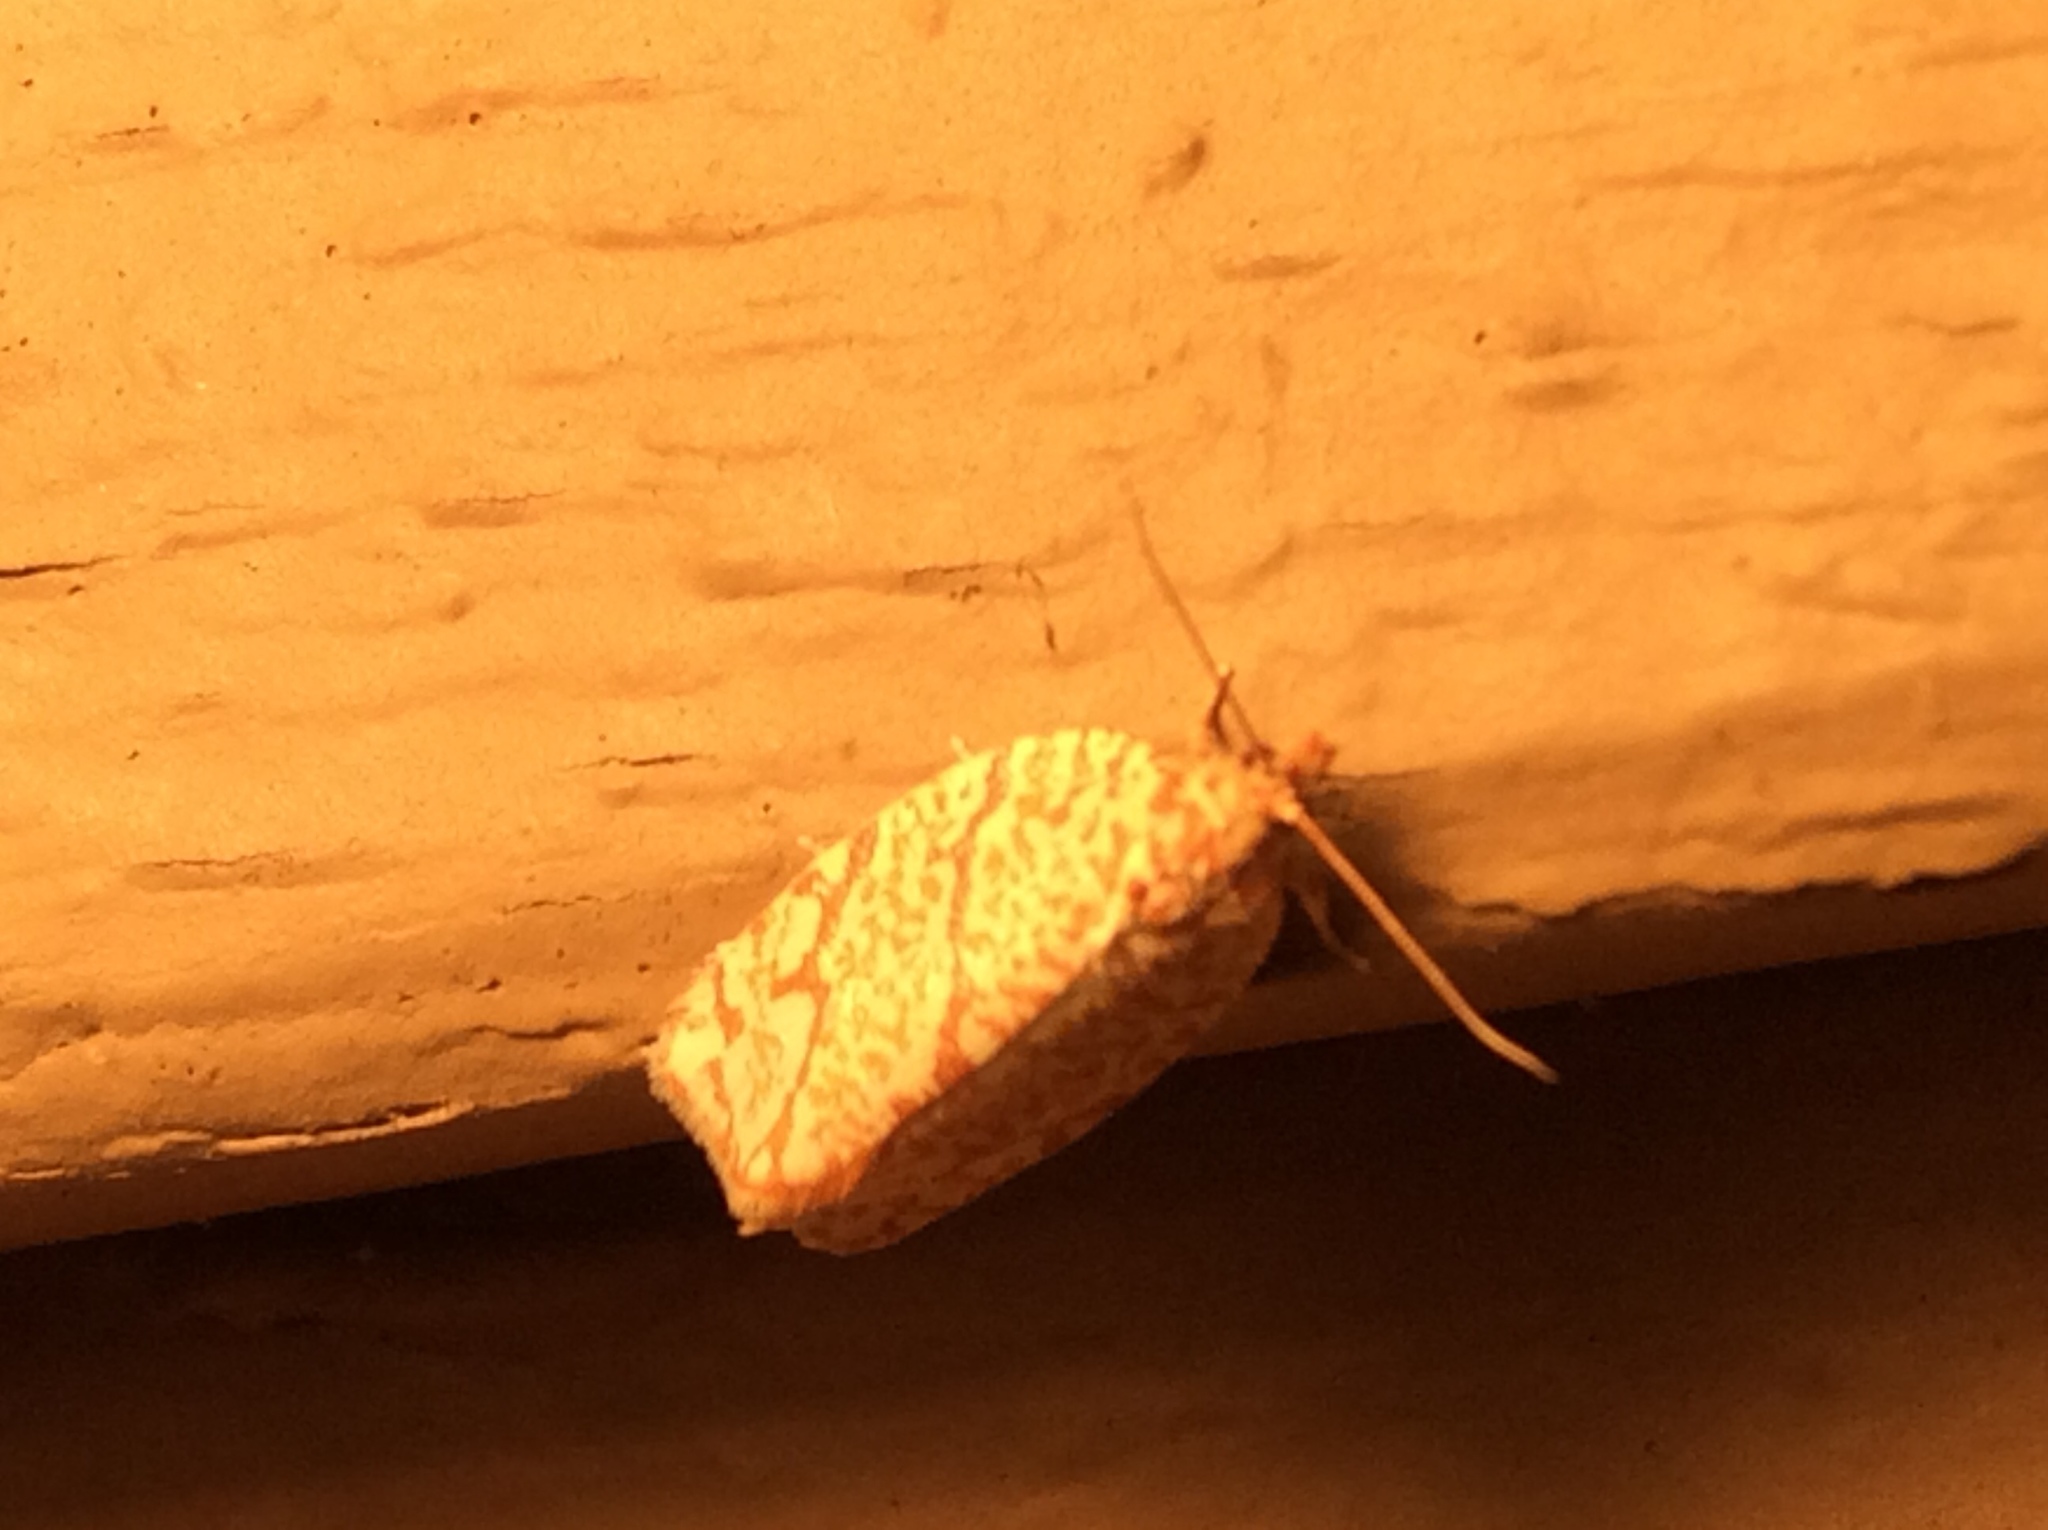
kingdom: Animalia
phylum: Arthropoda
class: Insecta
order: Lepidoptera
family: Tortricidae
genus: Argyrotaenia
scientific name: Argyrotaenia quercifoliana
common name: Yellow-winged oak leafroller moth
